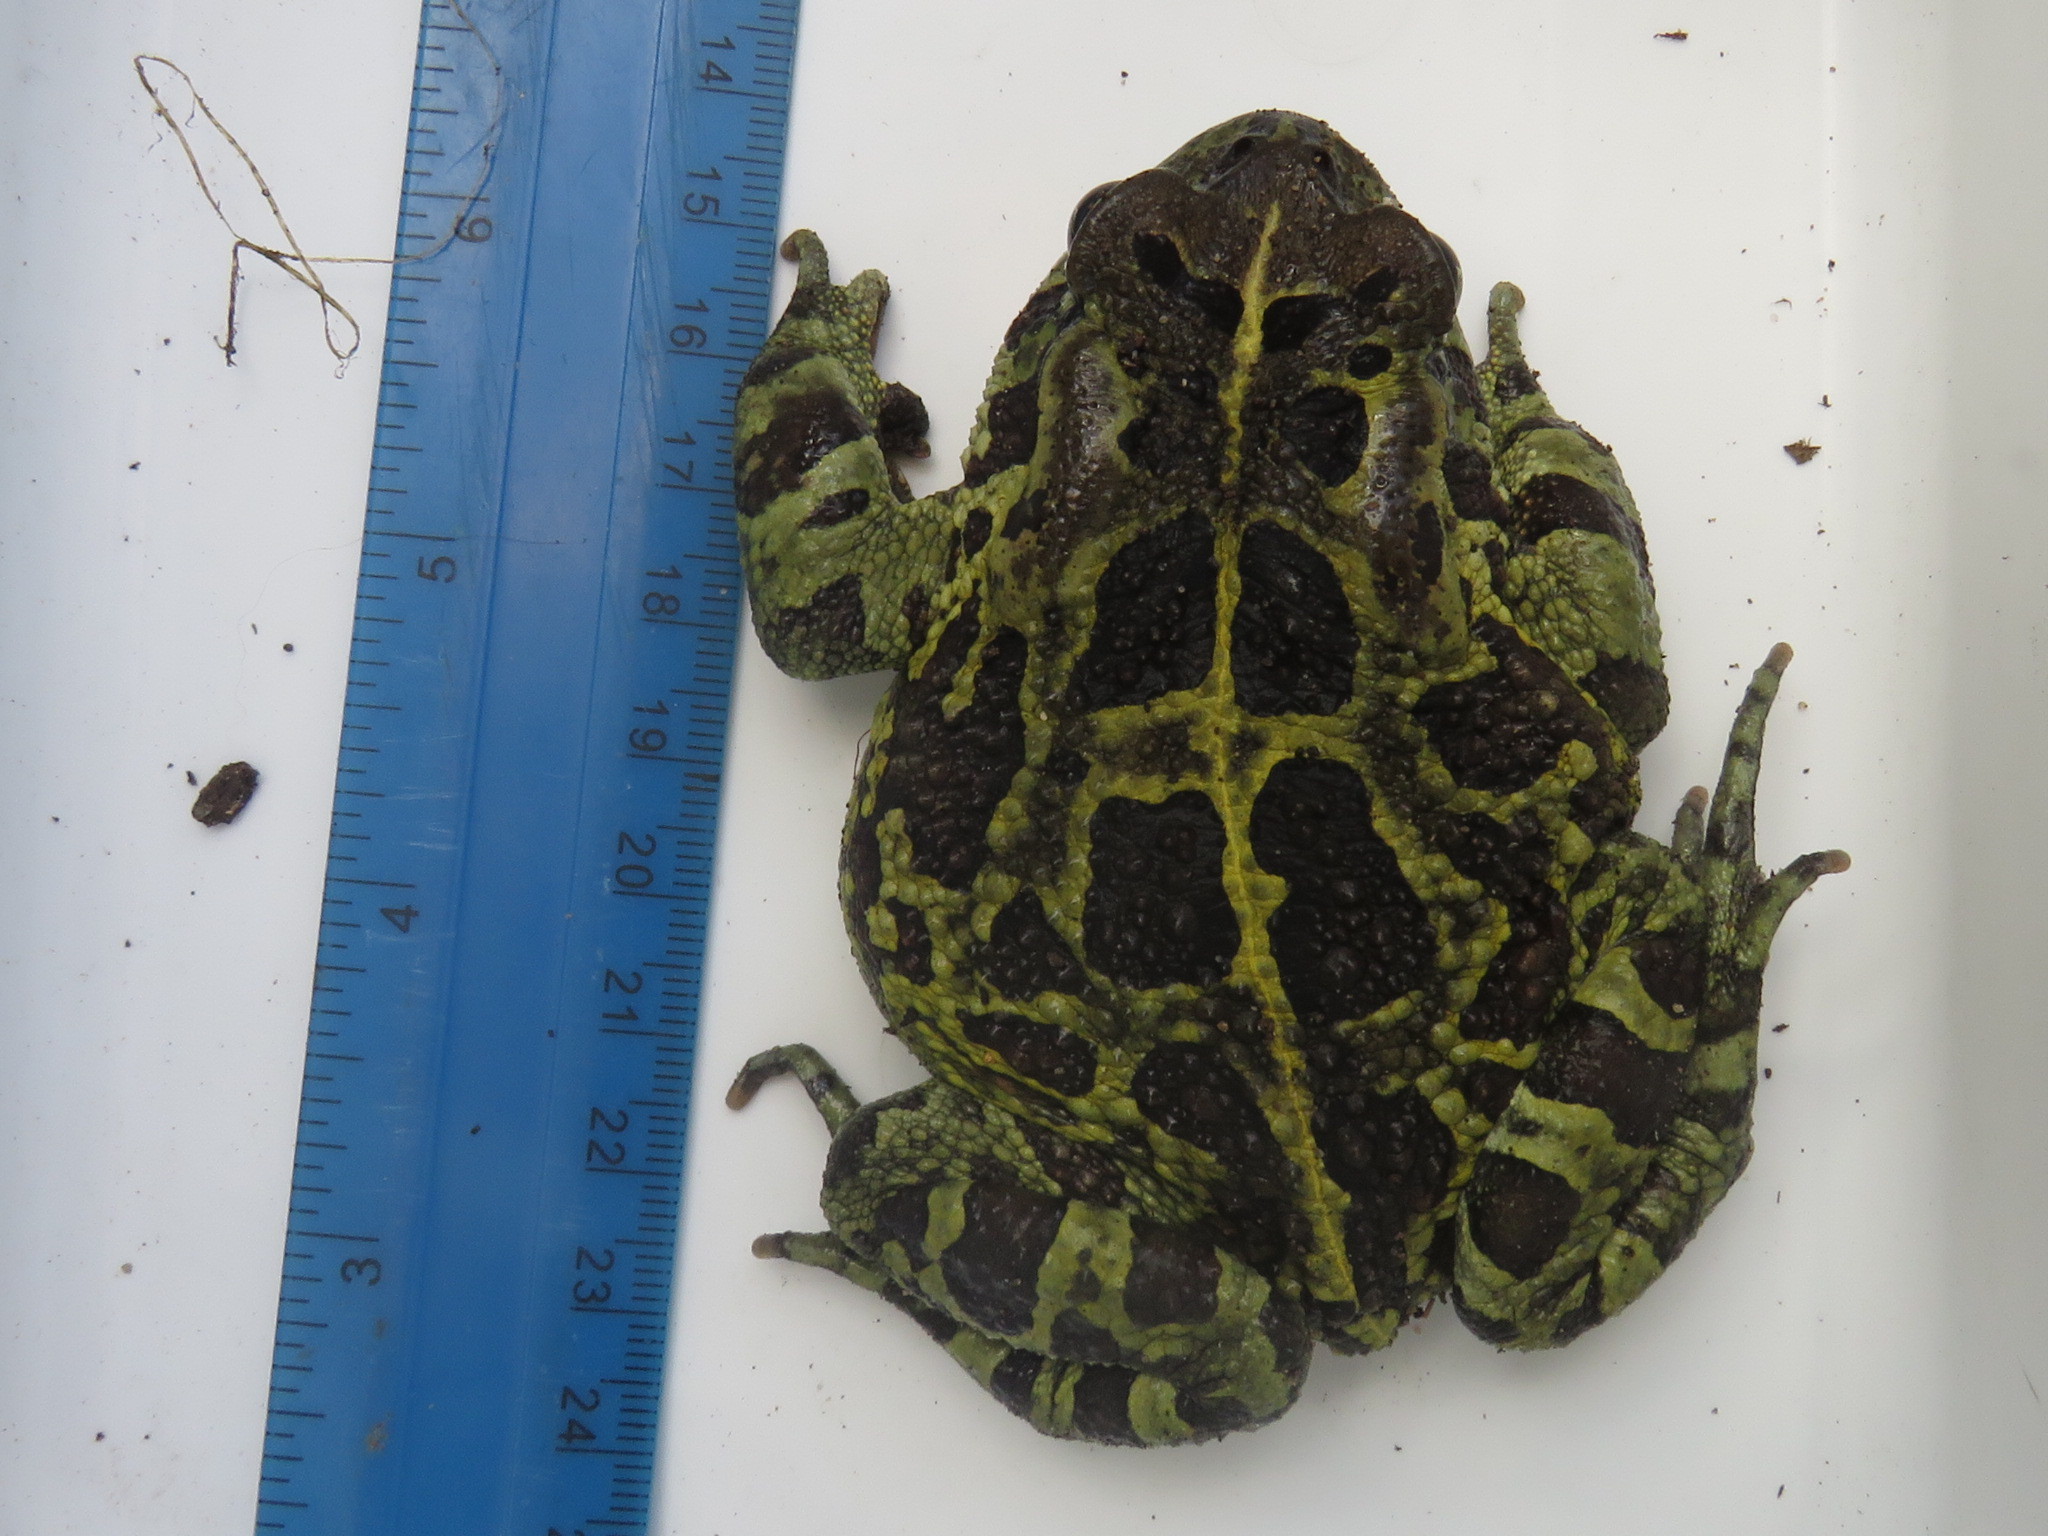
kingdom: Animalia
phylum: Chordata
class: Amphibia
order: Anura
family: Bufonidae
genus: Sclerophrys
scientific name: Sclerophrys pantherina
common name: Panther toad
